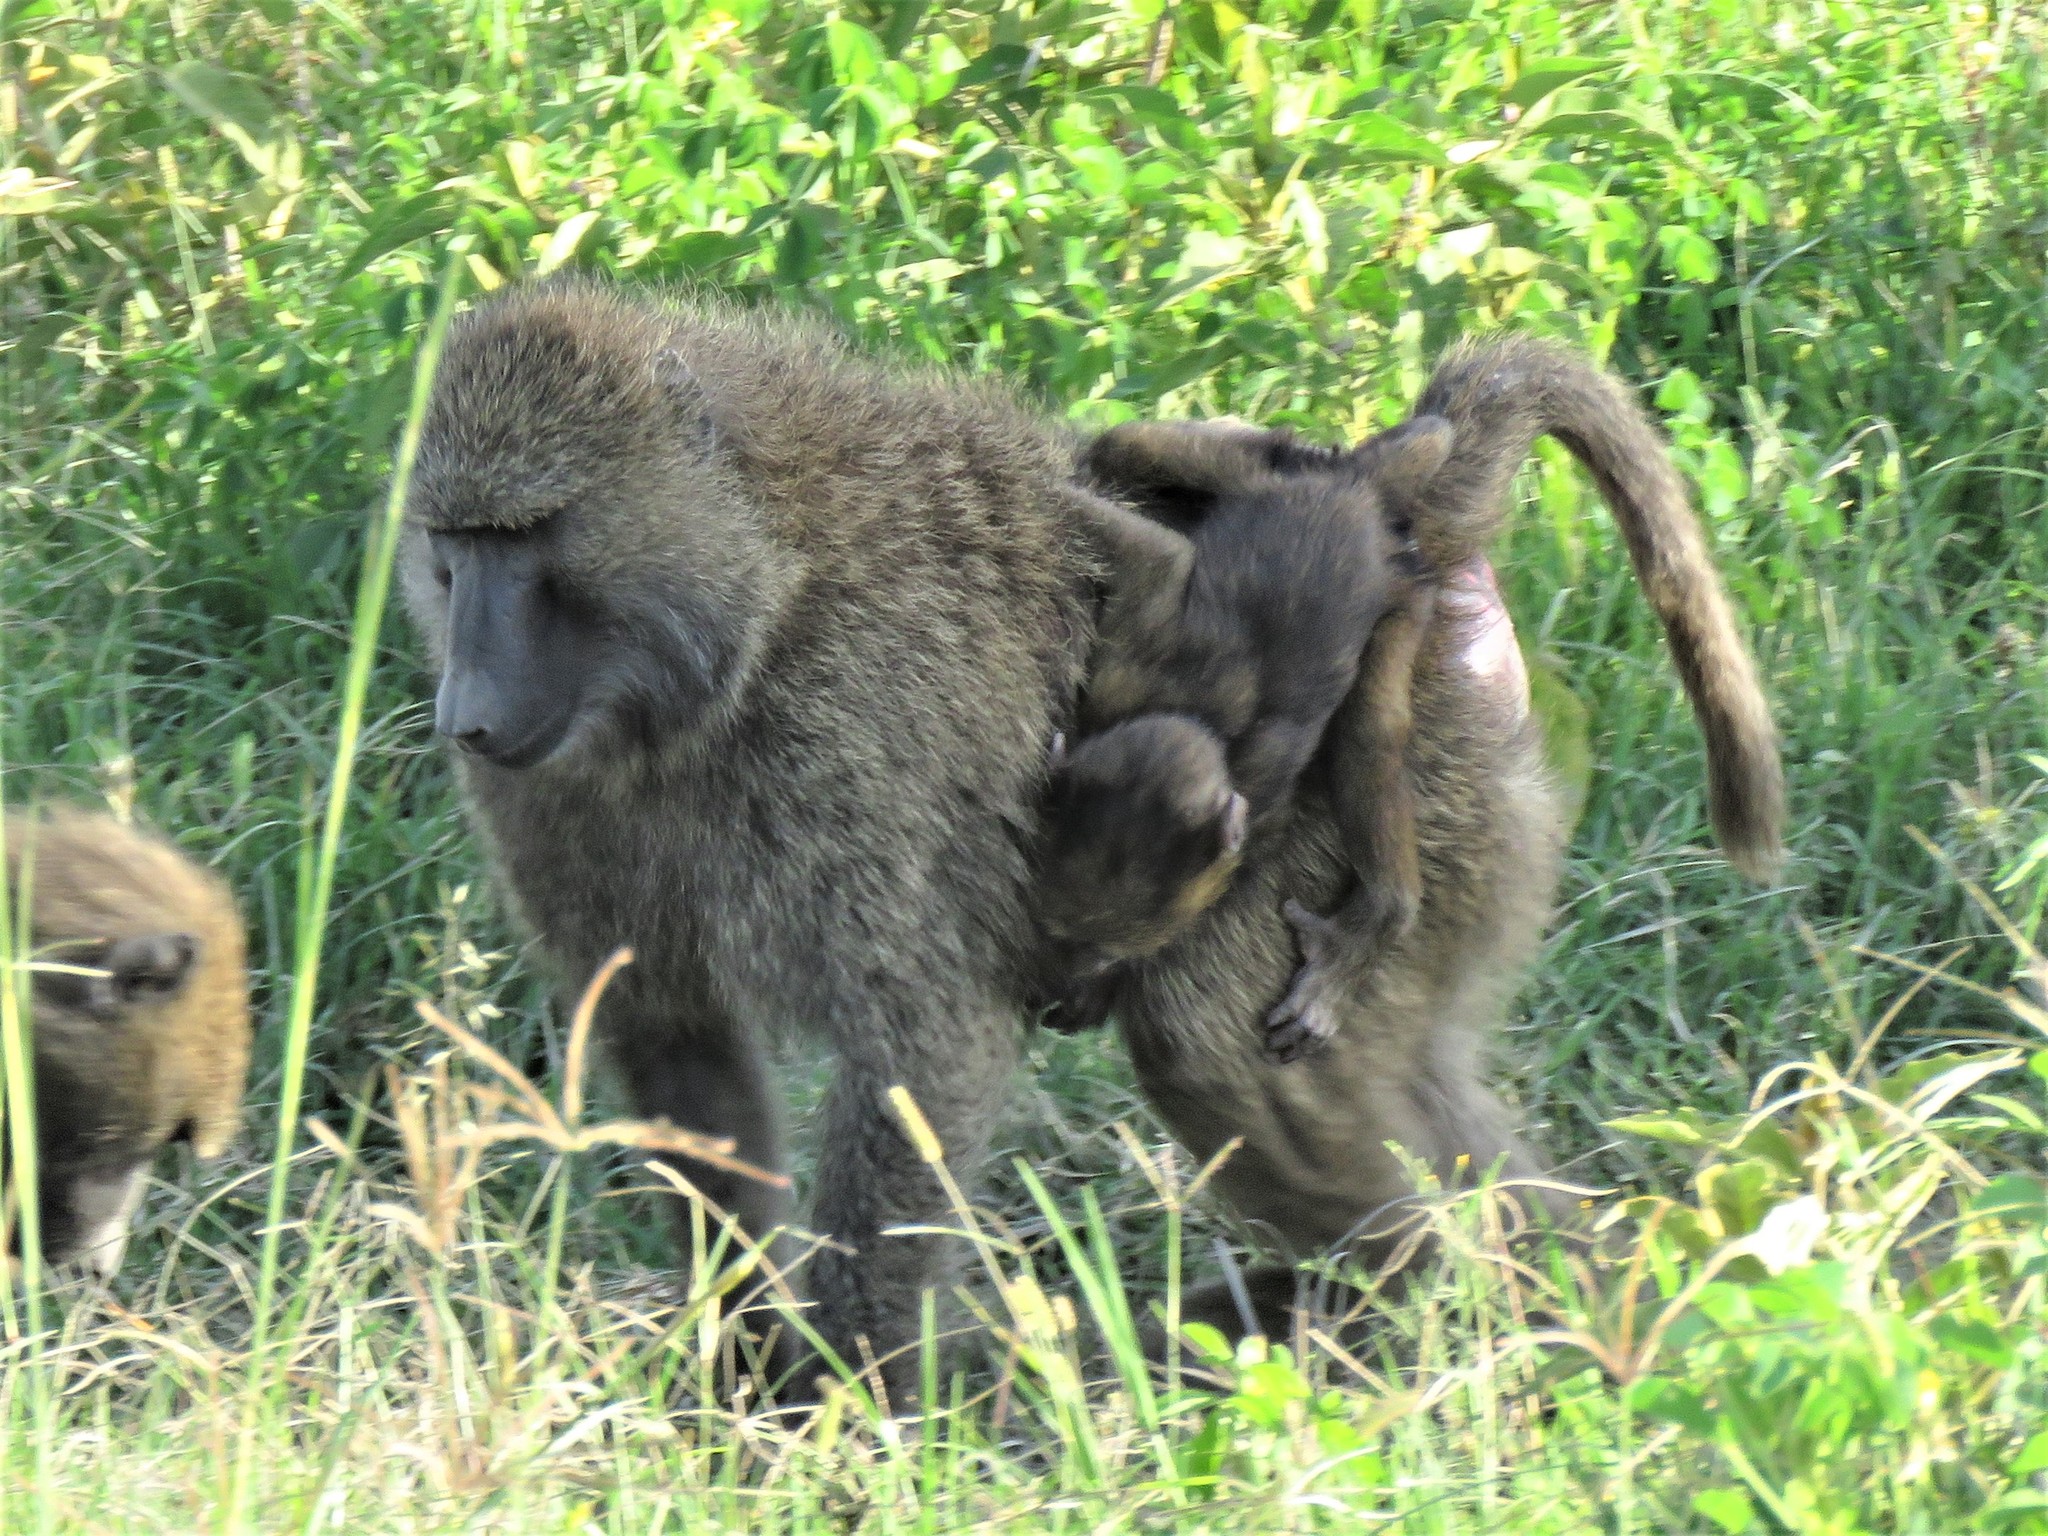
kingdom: Animalia
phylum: Chordata
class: Mammalia
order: Primates
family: Cercopithecidae
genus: Papio
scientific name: Papio anubis
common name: Olive baboon
